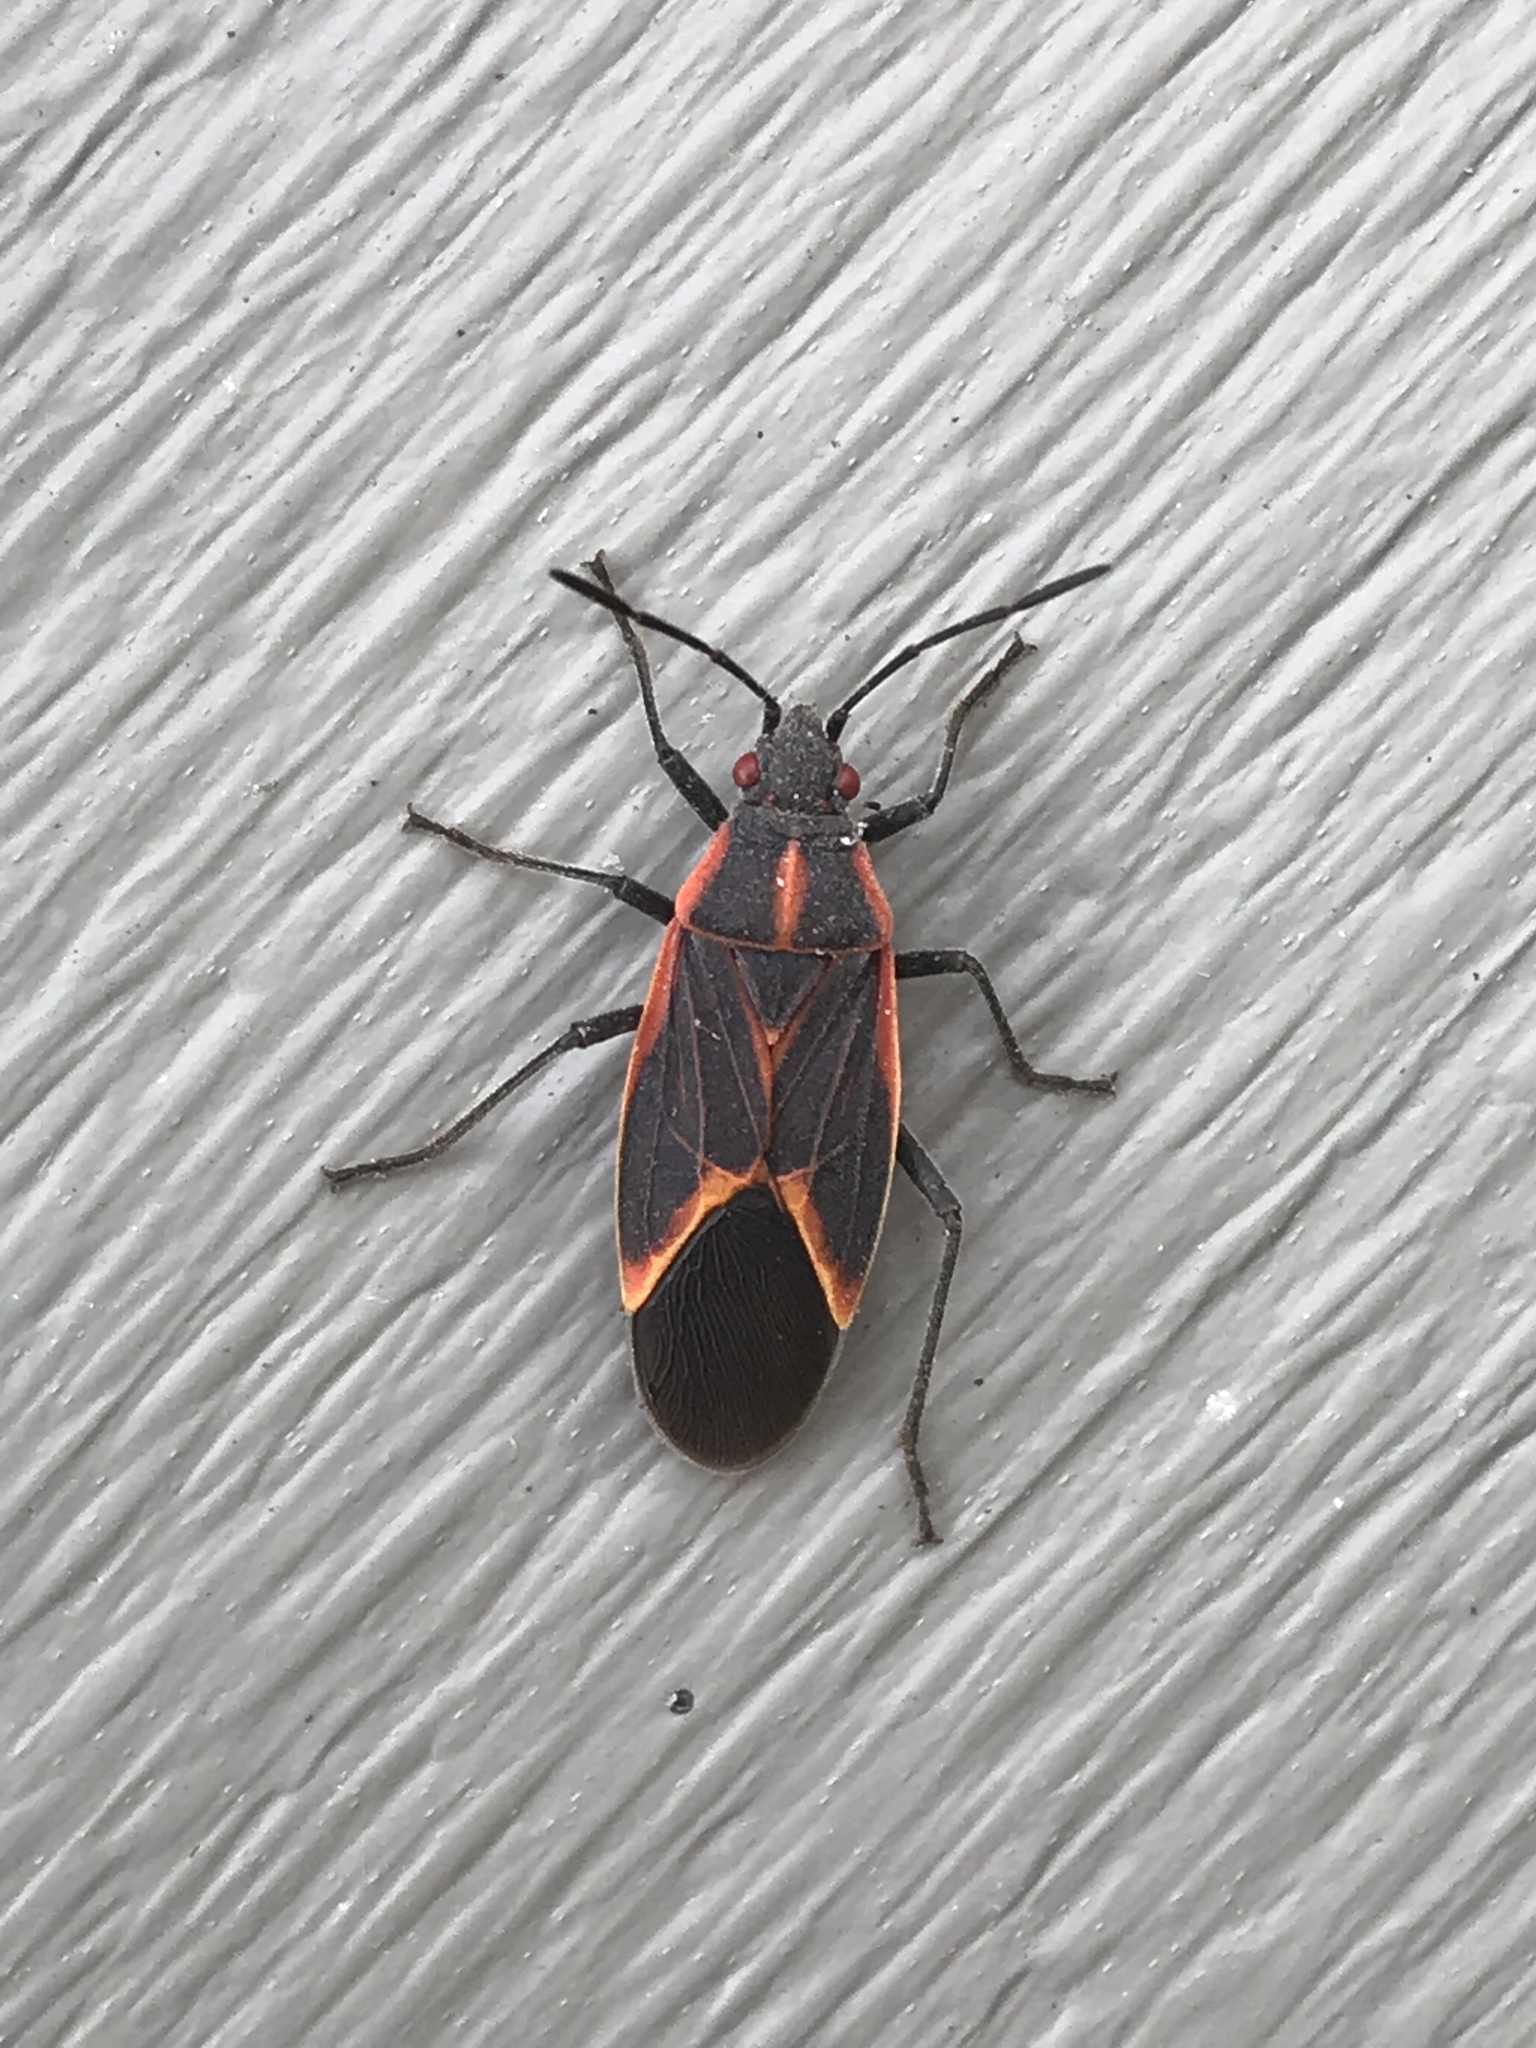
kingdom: Animalia
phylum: Arthropoda
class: Insecta
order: Hemiptera
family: Rhopalidae
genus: Boisea
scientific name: Boisea trivittata
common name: Boxelder bug
